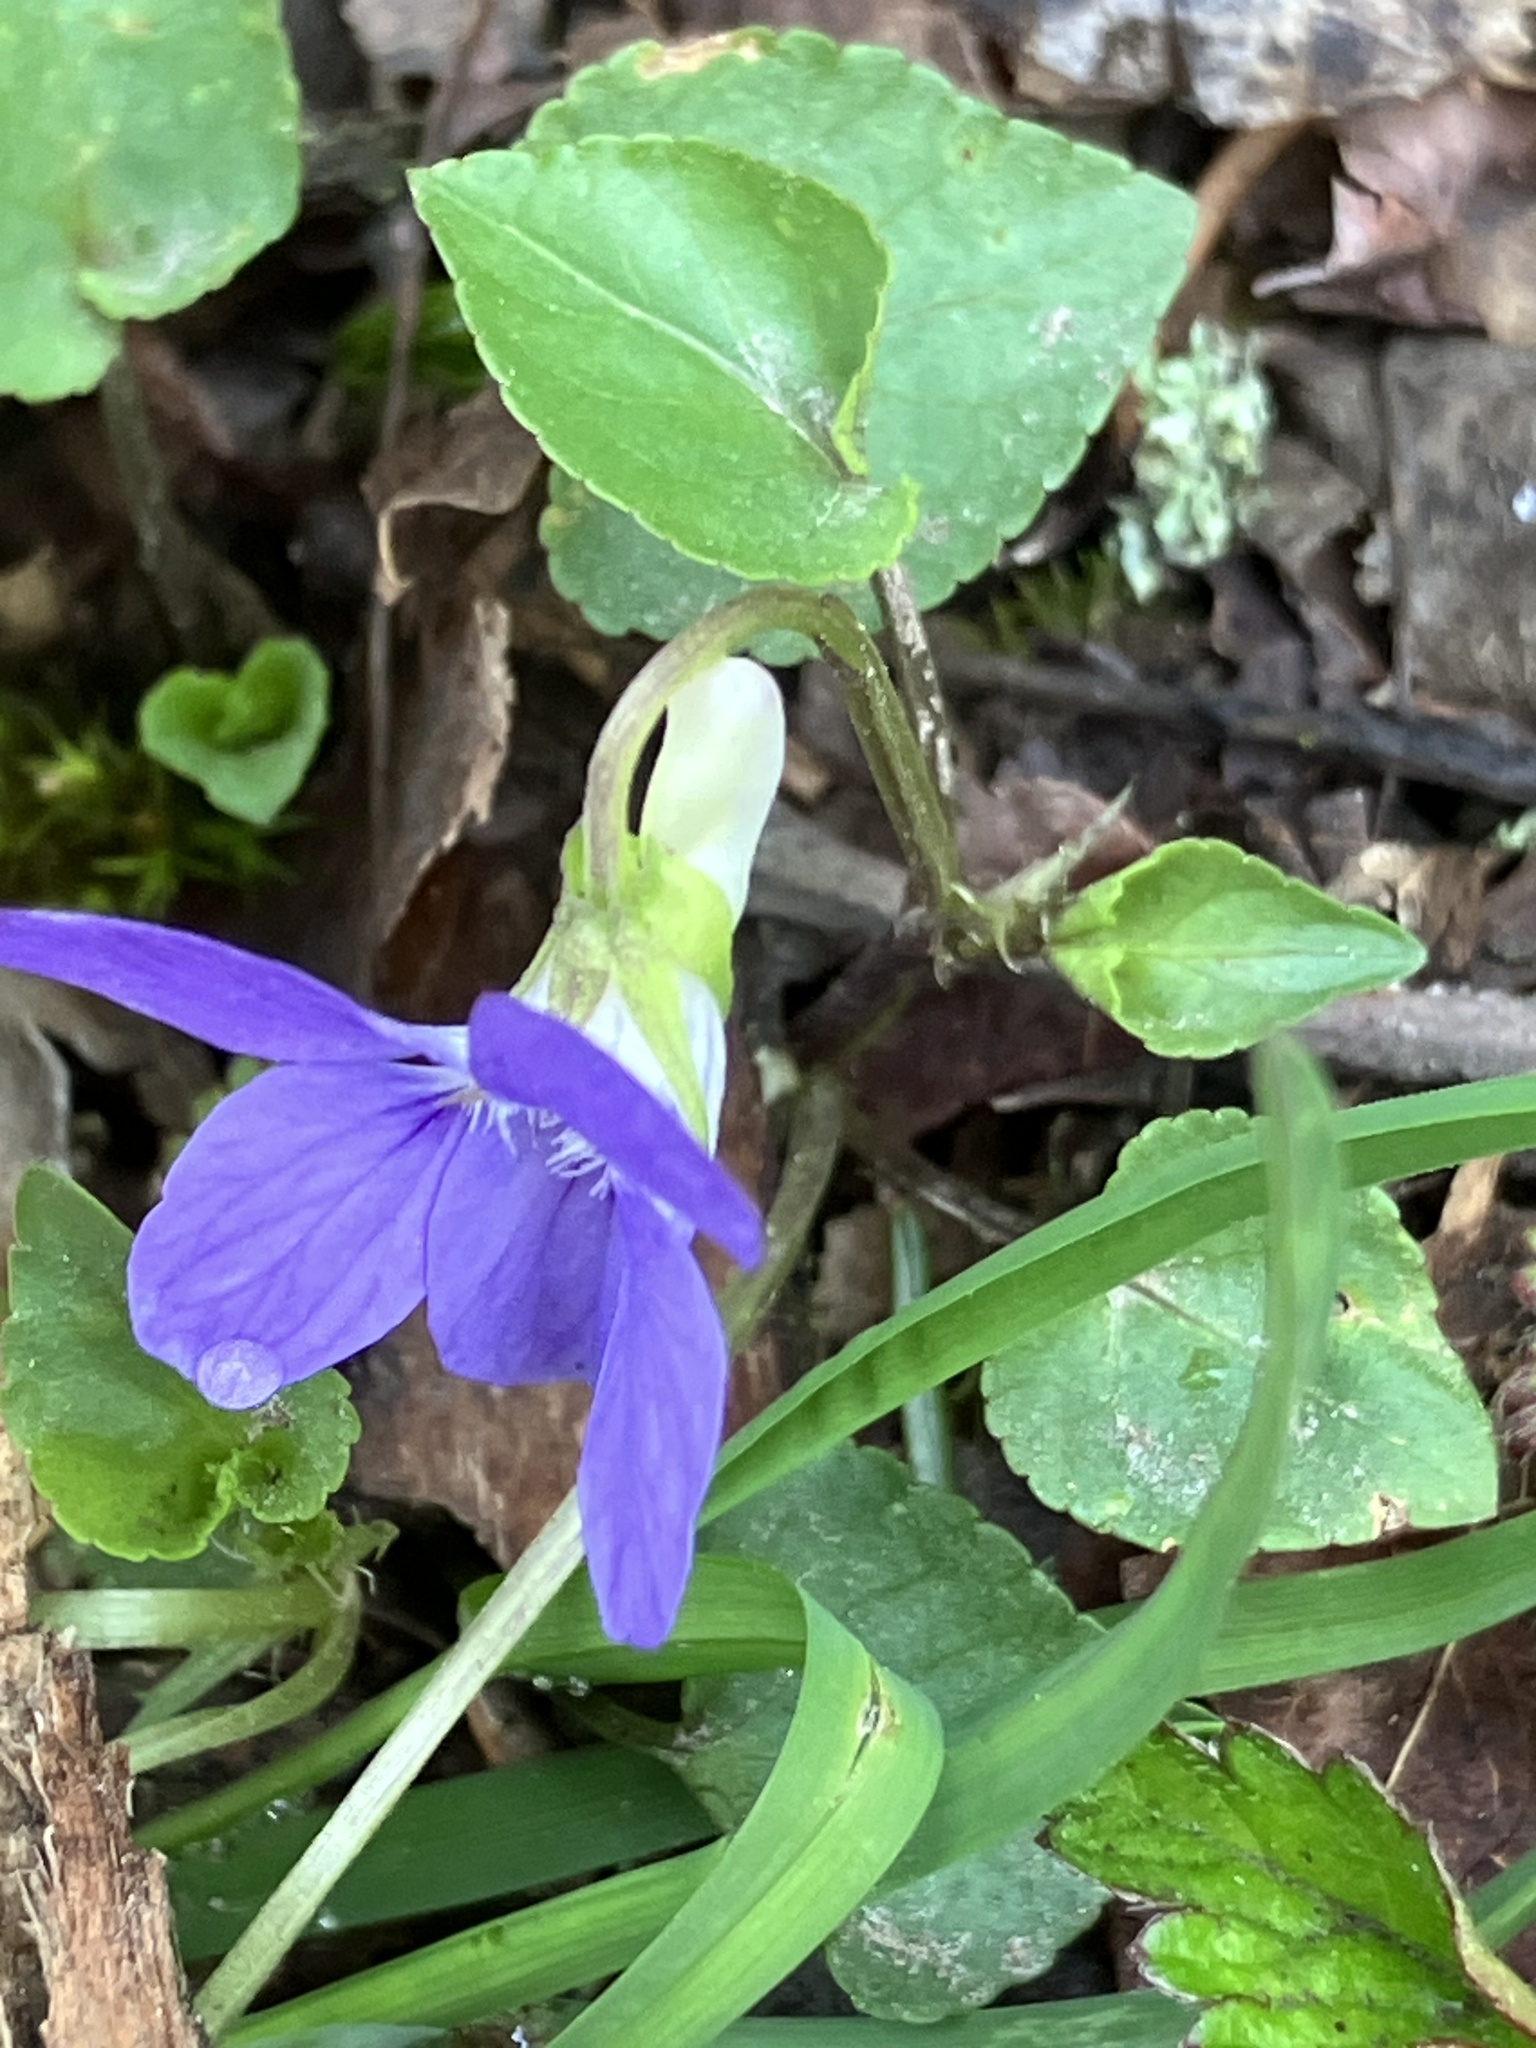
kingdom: Plantae
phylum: Tracheophyta
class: Magnoliopsida
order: Malpighiales
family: Violaceae
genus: Viola
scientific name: Viola riviniana
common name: Common dog-violet
